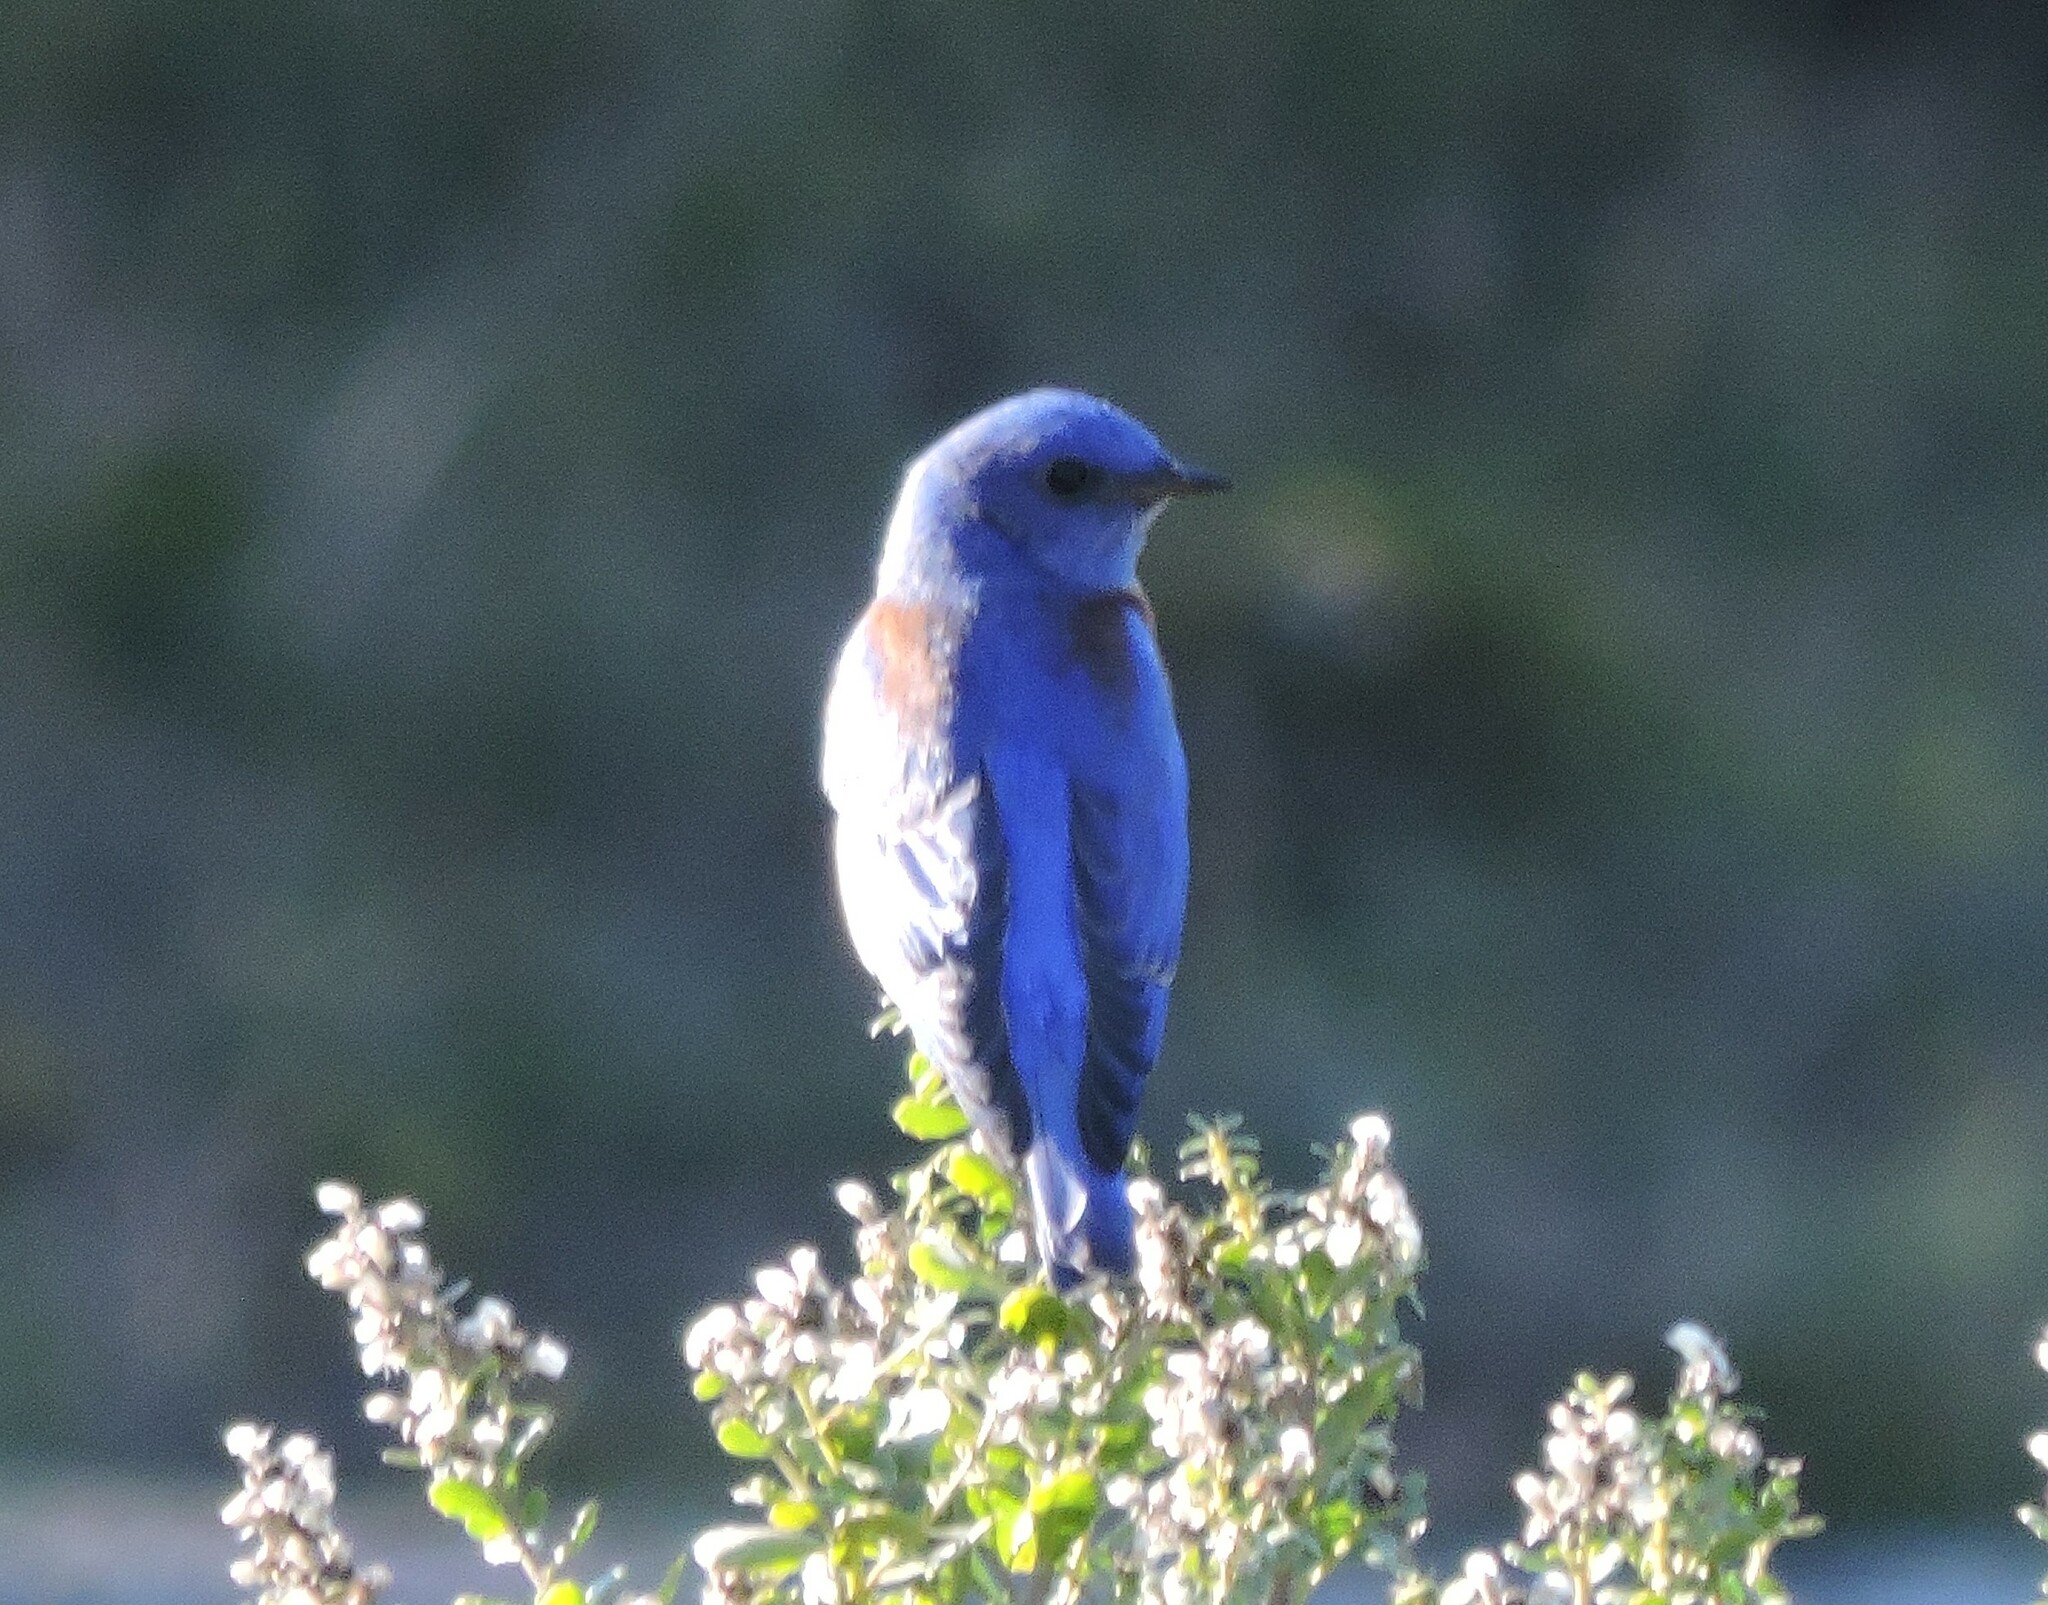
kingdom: Animalia
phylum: Chordata
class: Aves
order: Passeriformes
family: Turdidae
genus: Sialia
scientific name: Sialia mexicana
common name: Western bluebird
